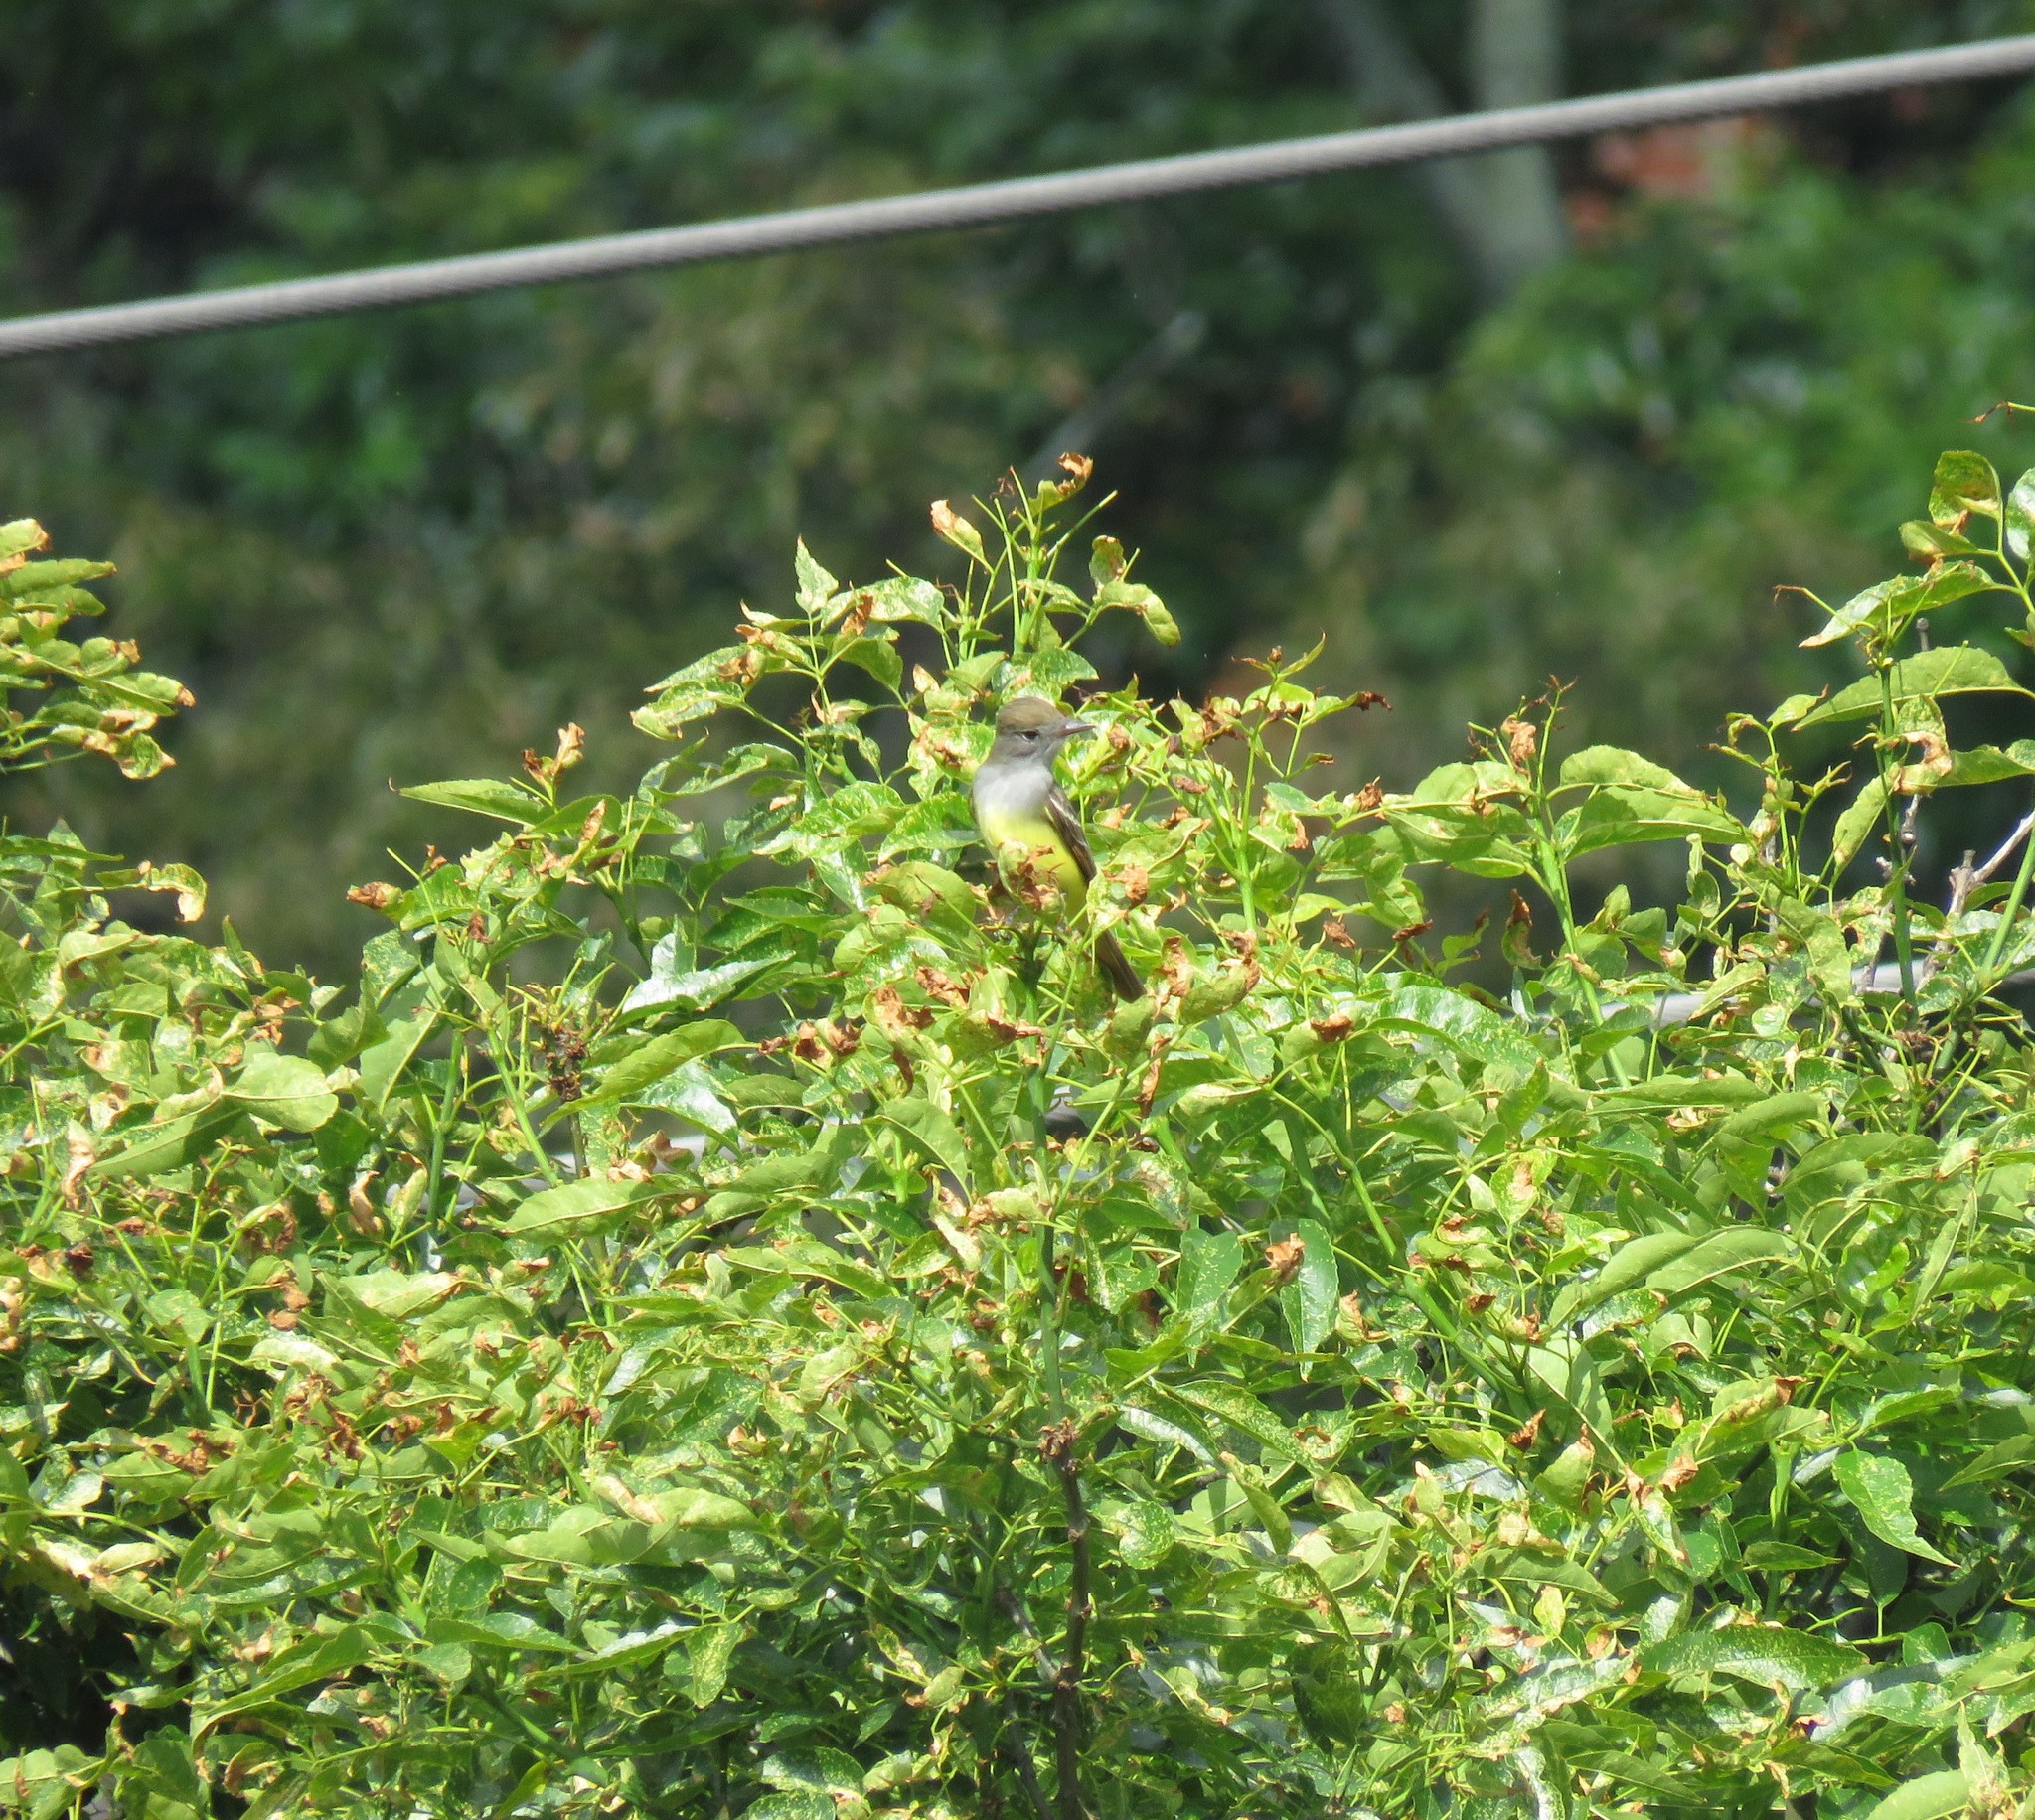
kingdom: Animalia
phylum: Chordata
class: Aves
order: Passeriformes
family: Tyrannidae
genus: Myiarchus
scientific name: Myiarchus crinitus
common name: Great crested flycatcher
